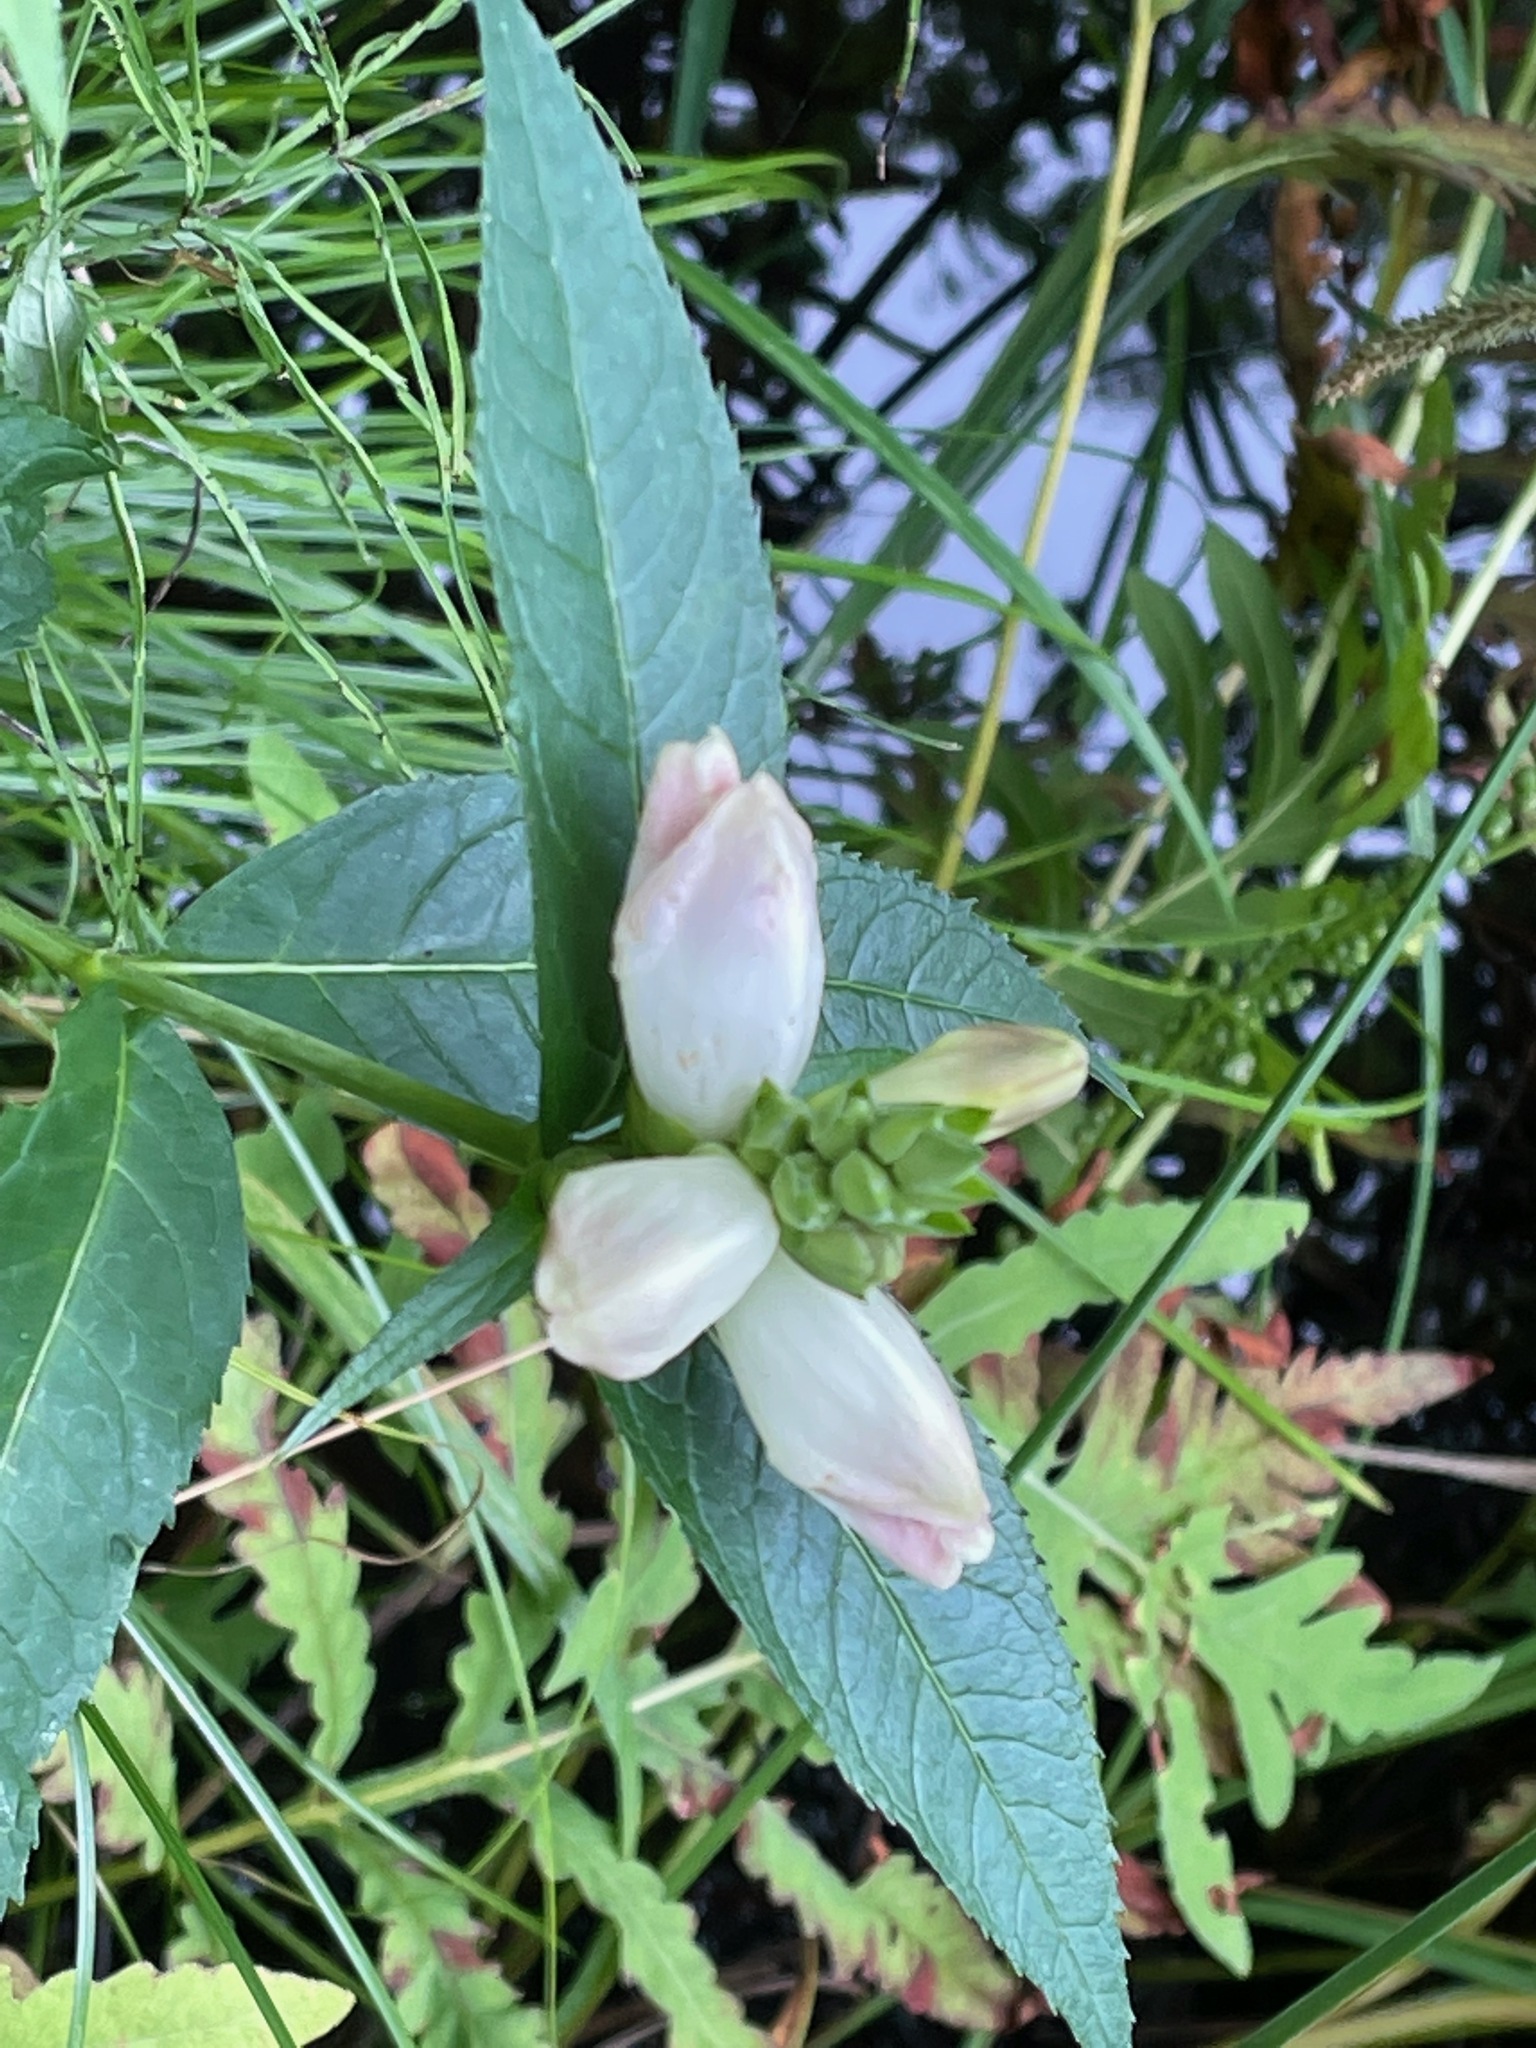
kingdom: Plantae
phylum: Tracheophyta
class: Magnoliopsida
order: Lamiales
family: Plantaginaceae
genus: Chelone
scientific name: Chelone glabra
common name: Snakehead
